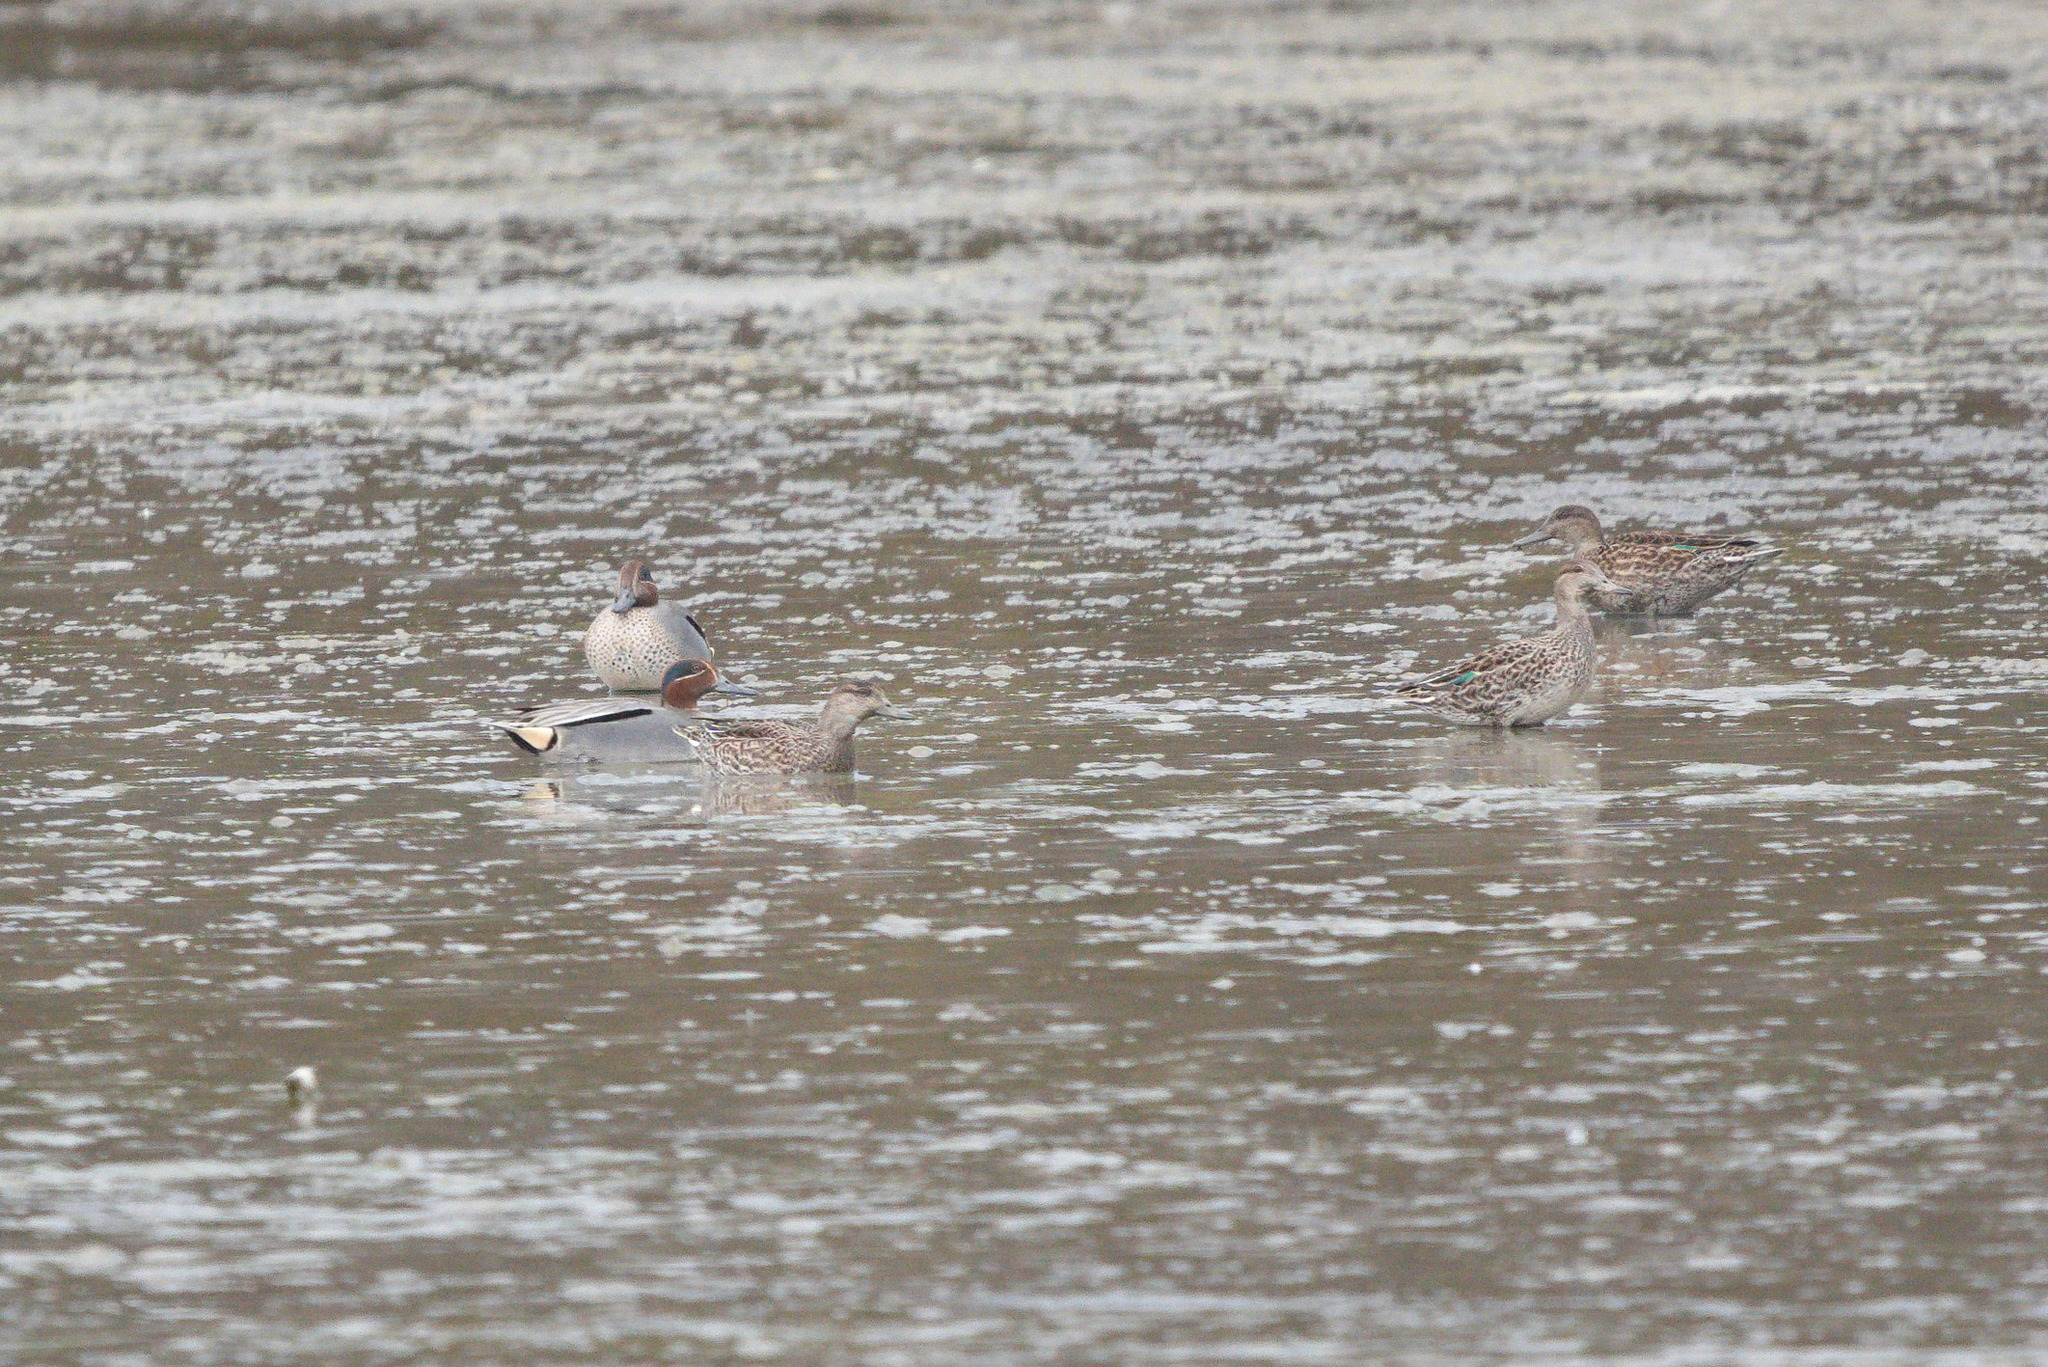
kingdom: Animalia
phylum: Chordata
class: Aves
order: Anseriformes
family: Anatidae
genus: Anas
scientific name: Anas crecca
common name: Eurasian teal
